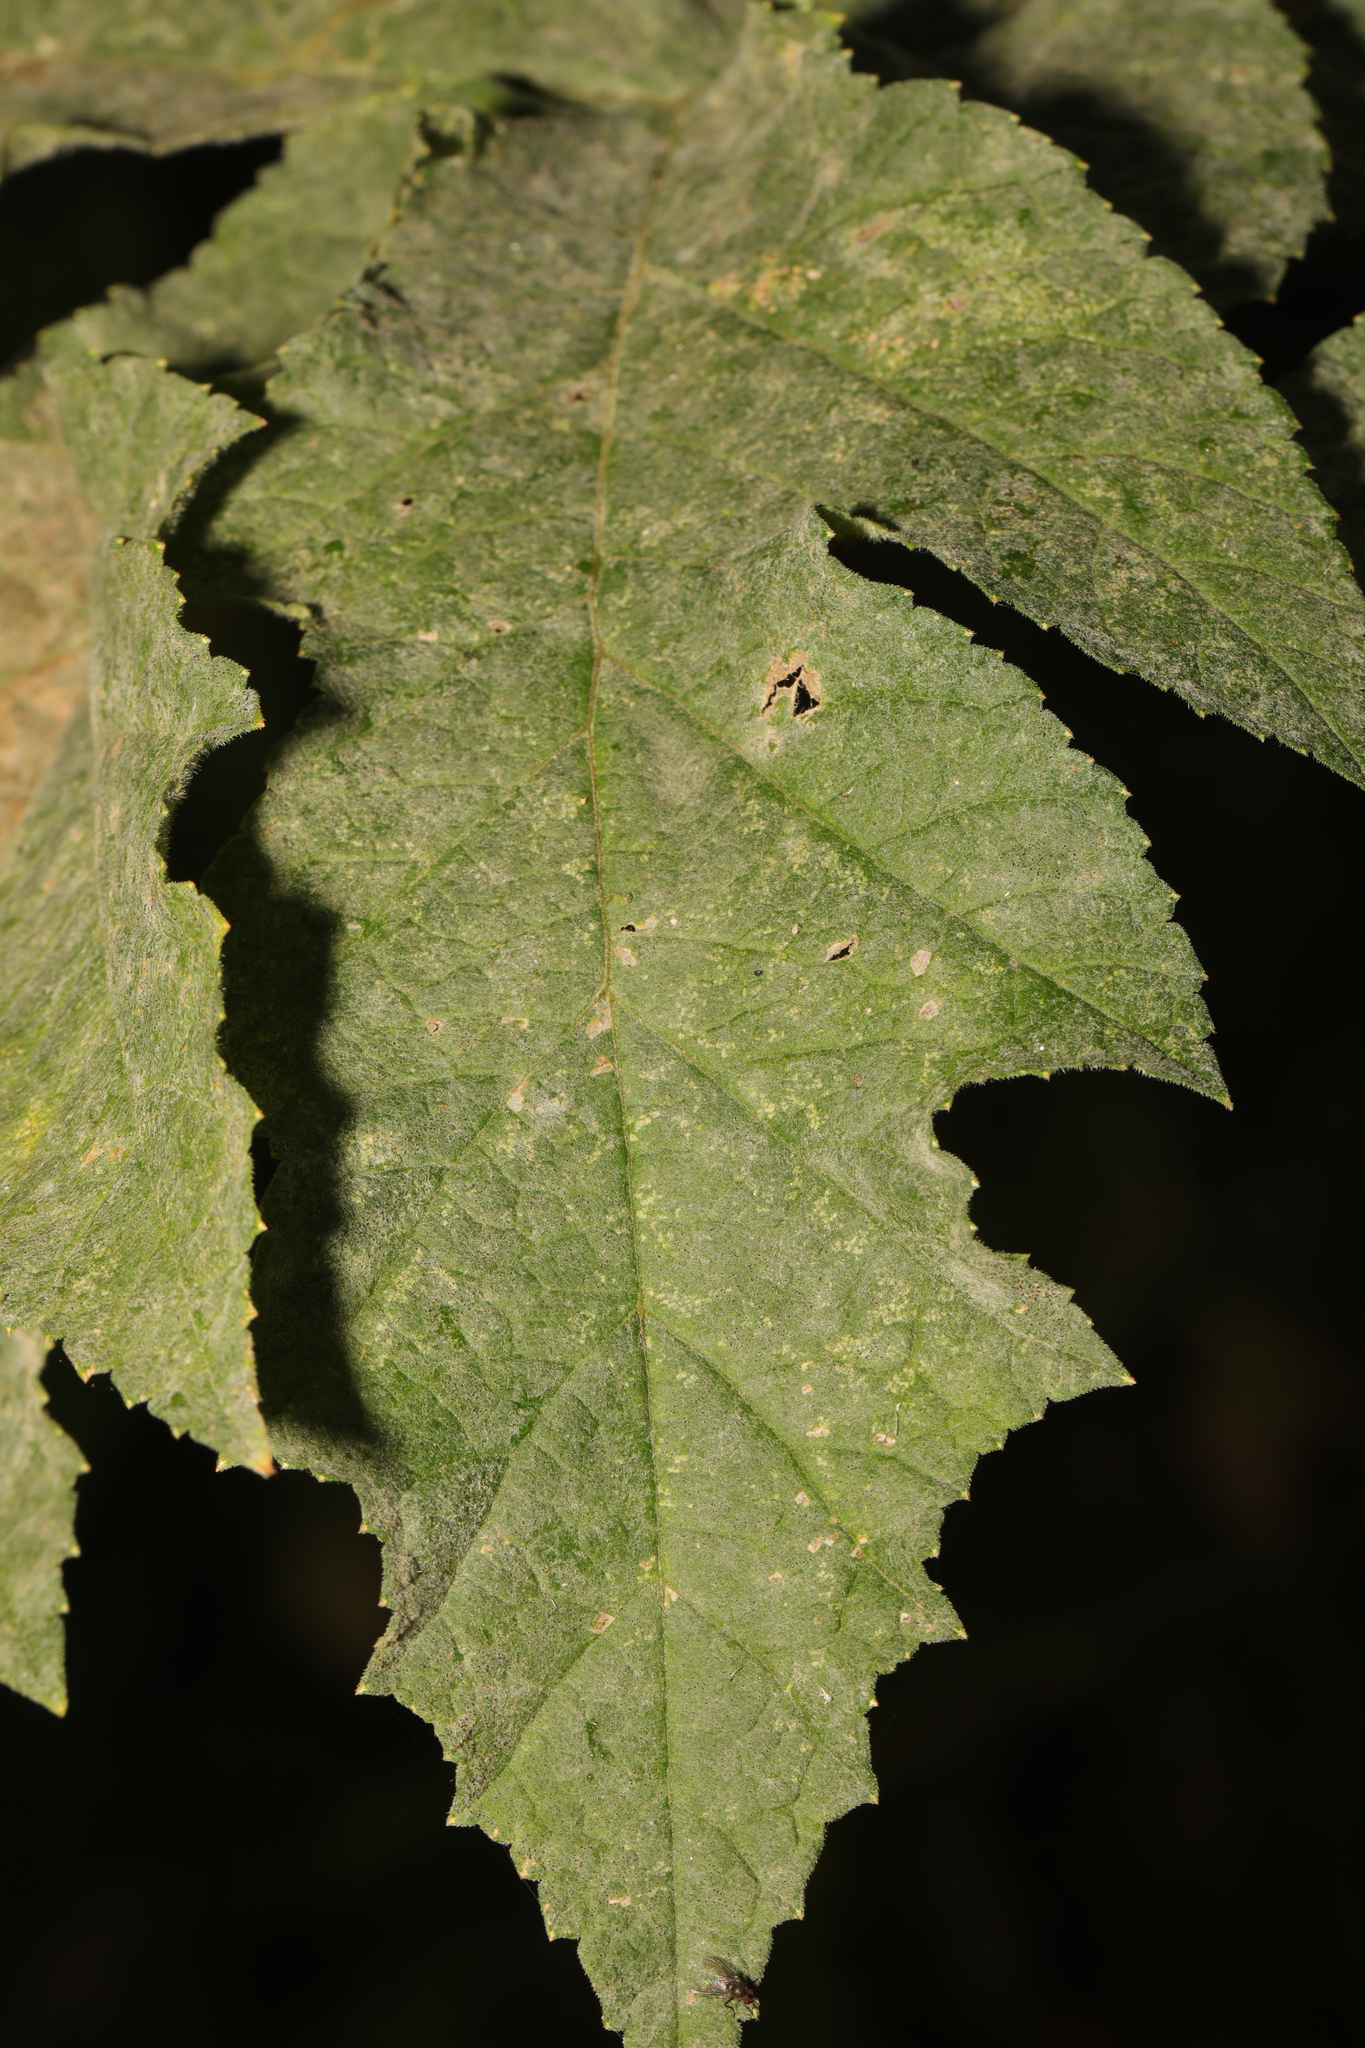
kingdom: Fungi
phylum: Ascomycota
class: Leotiomycetes
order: Helotiales
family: Erysiphaceae
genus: Erysiphe
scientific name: Erysiphe heraclei
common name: Umbellifer mildew
